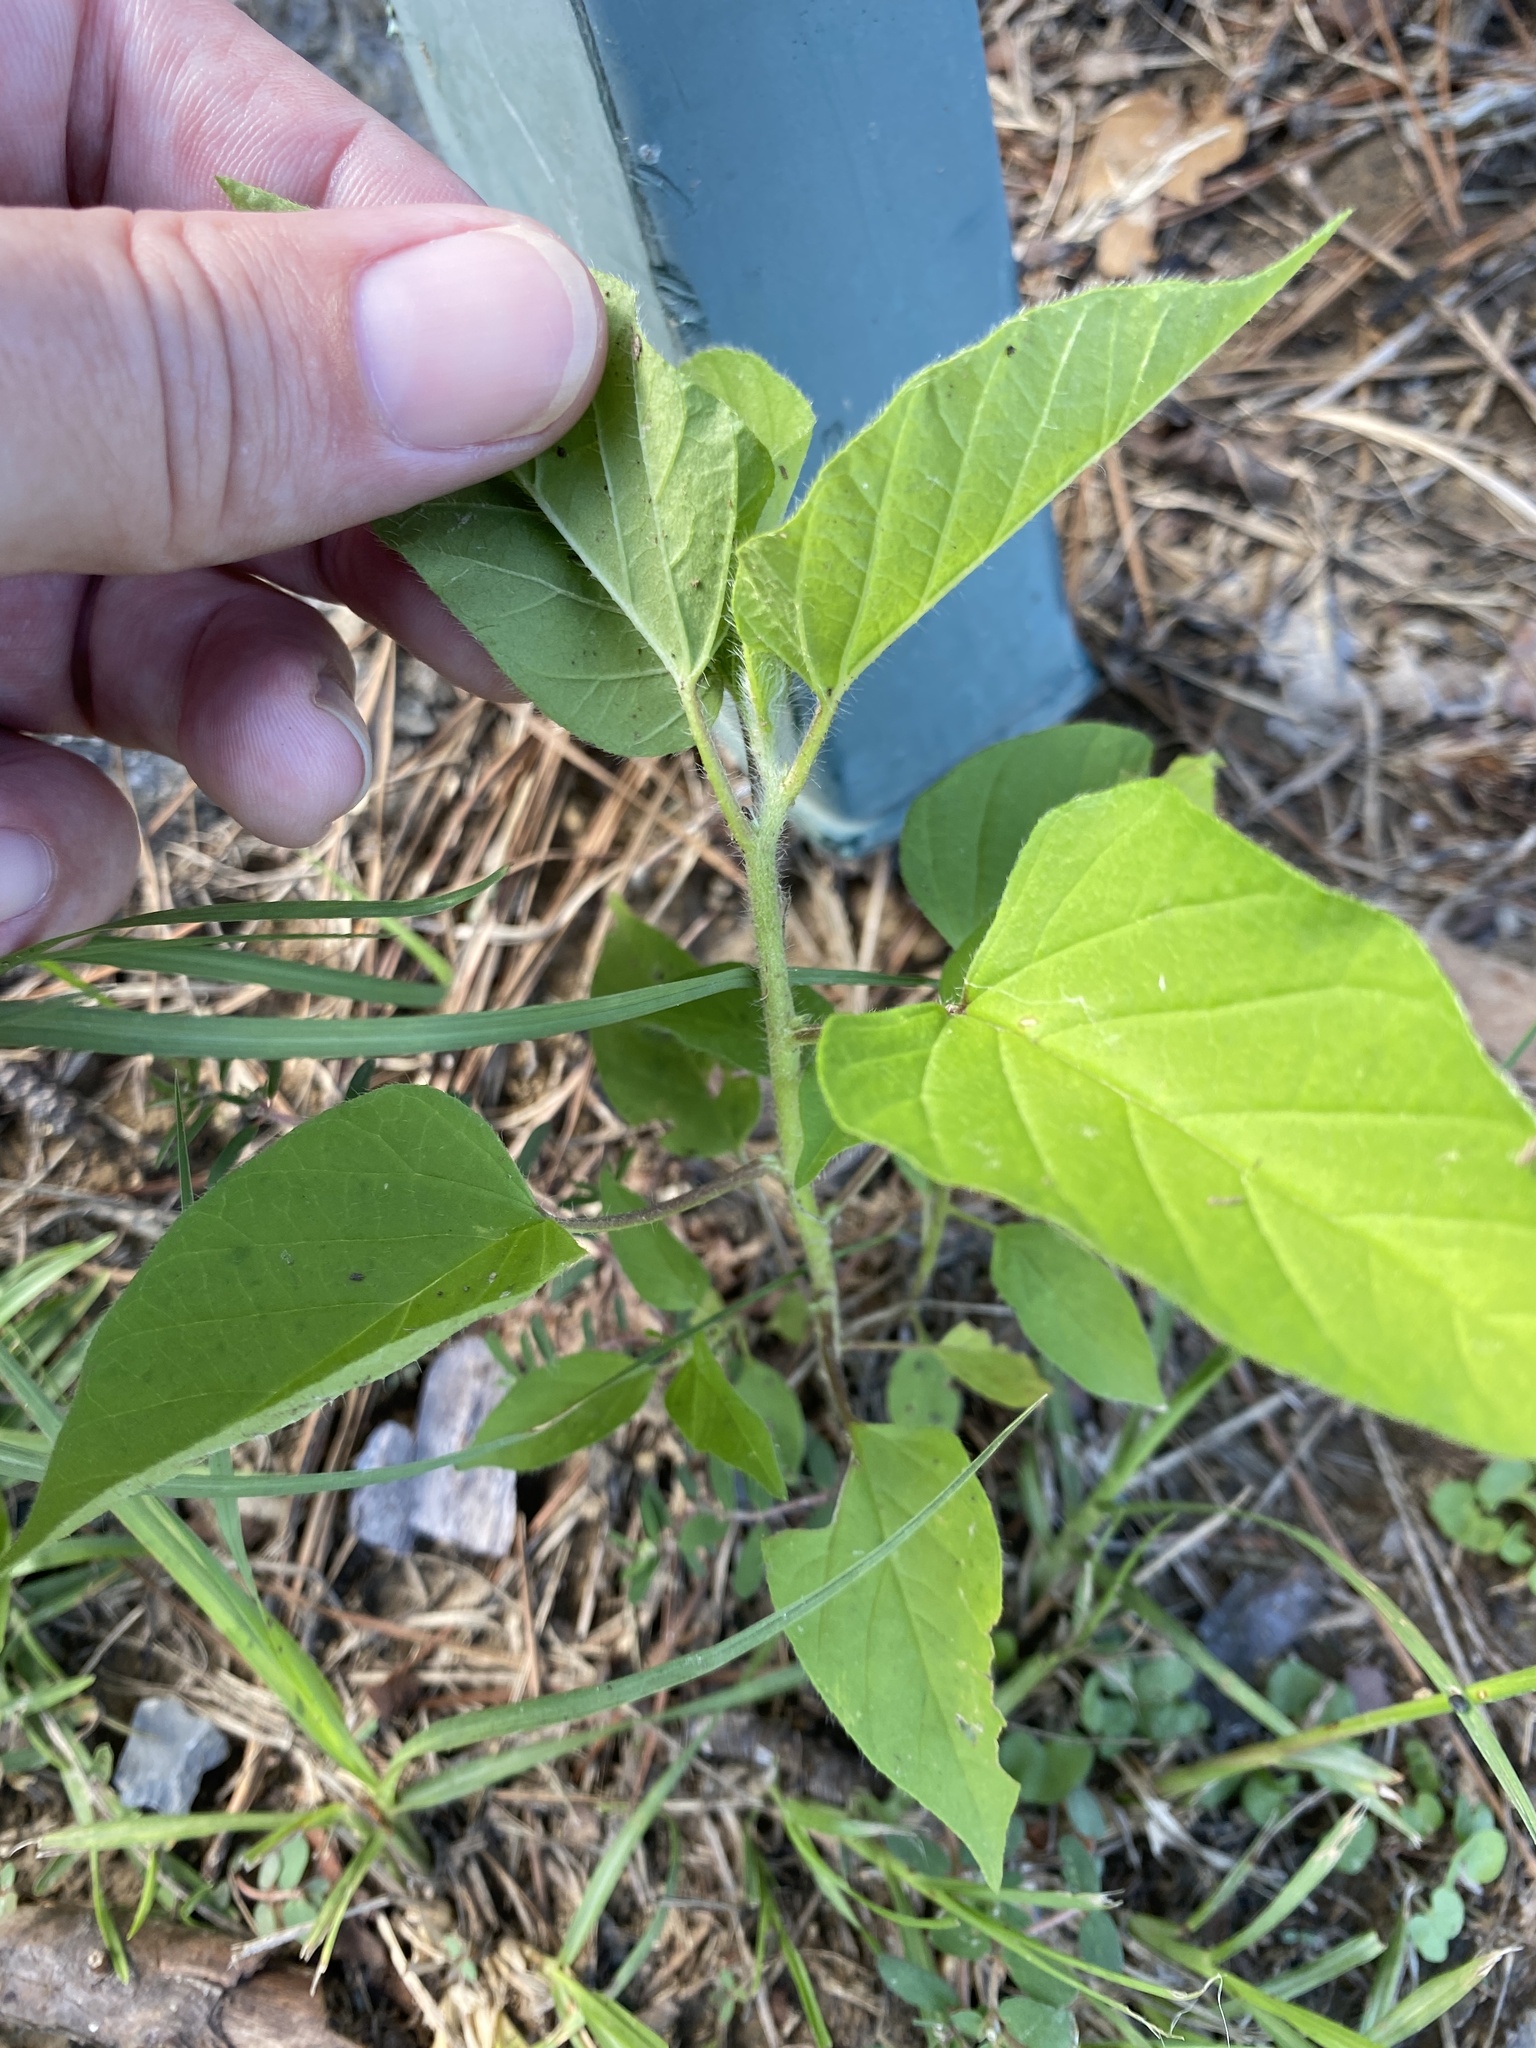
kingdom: Plantae
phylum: Tracheophyta
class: Magnoliopsida
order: Solanales
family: Convolvulaceae
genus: Jacquemontia
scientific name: Jacquemontia tamnifolia
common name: Hairy clustervine
